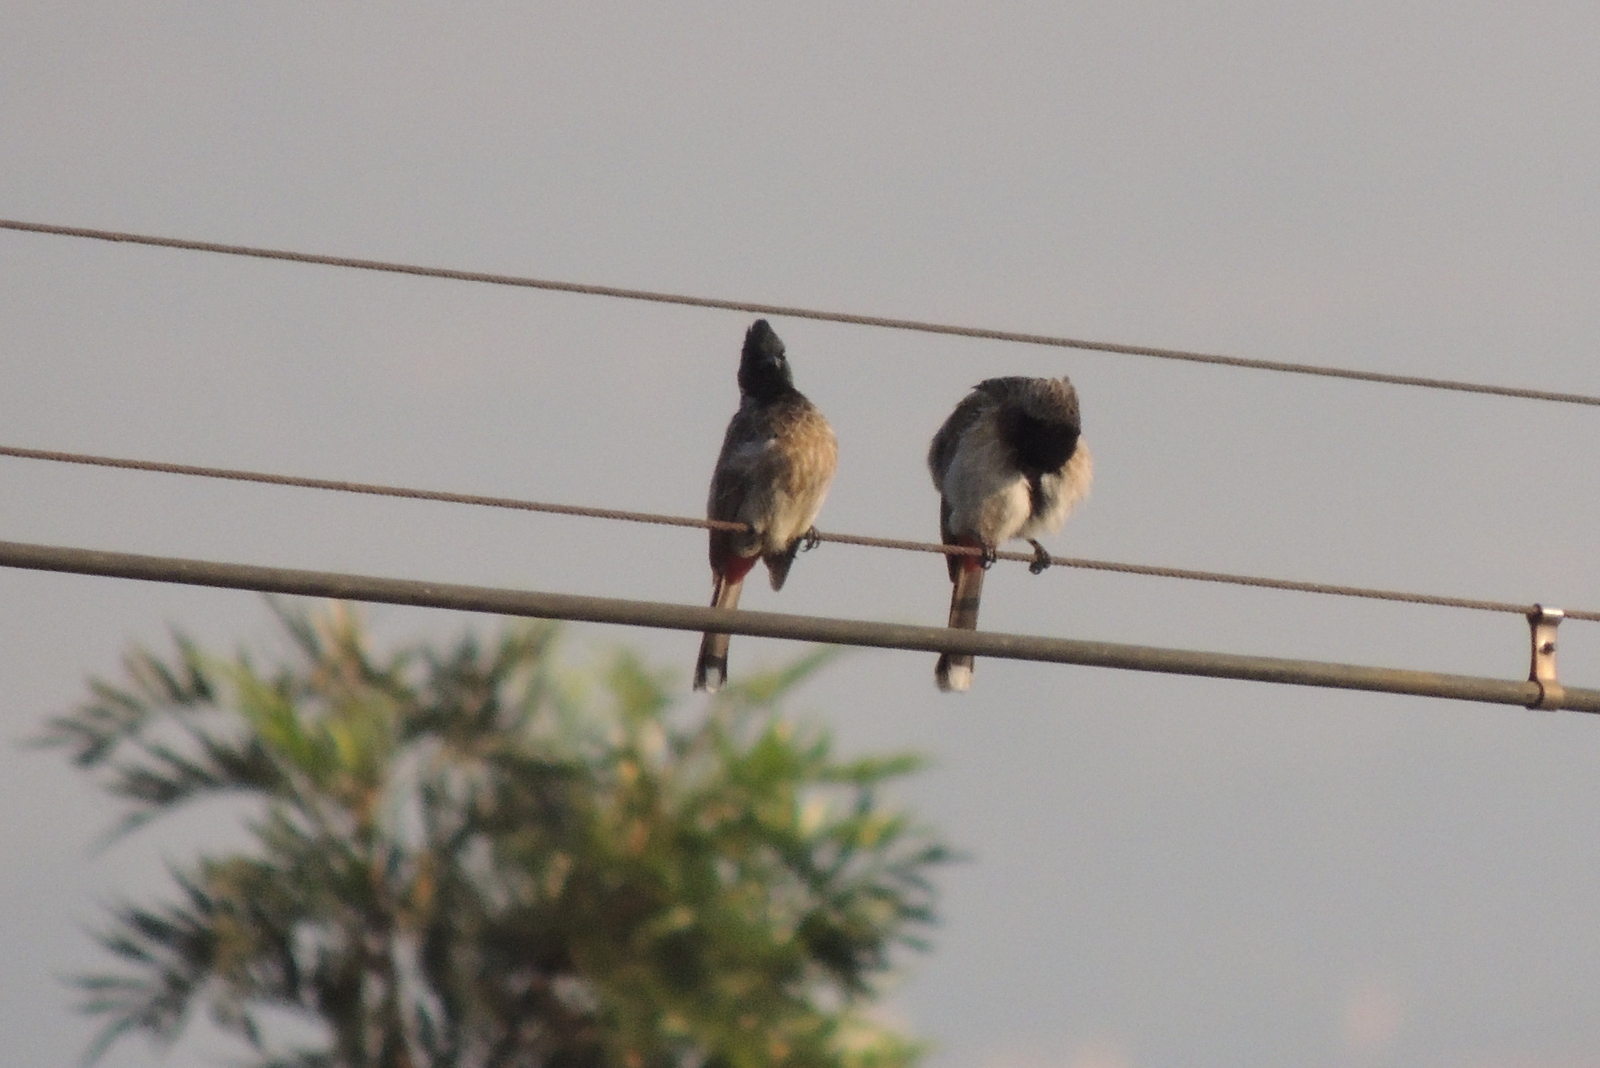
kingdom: Animalia
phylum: Chordata
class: Aves
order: Passeriformes
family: Pycnonotidae
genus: Pycnonotus
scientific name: Pycnonotus cafer
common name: Red-vented bulbul
